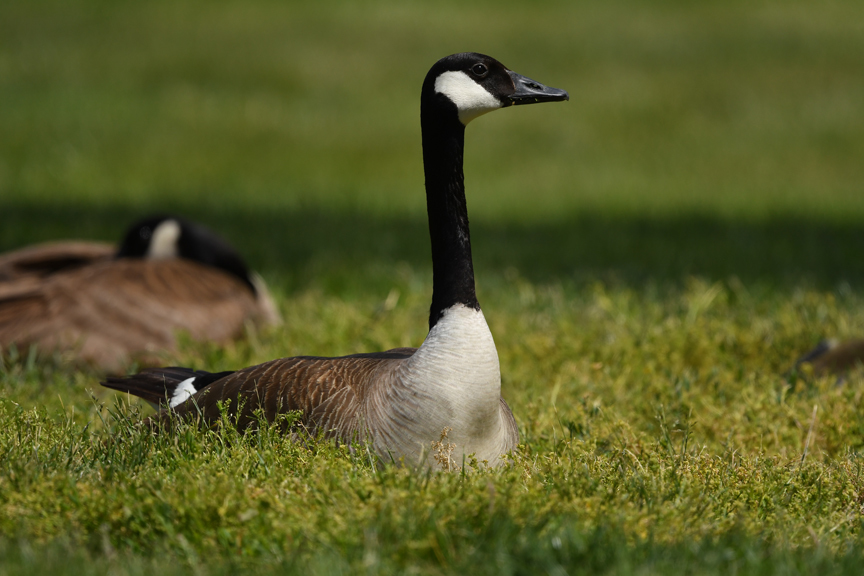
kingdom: Animalia
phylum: Chordata
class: Aves
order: Anseriformes
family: Anatidae
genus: Branta
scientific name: Branta canadensis
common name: Canada goose
